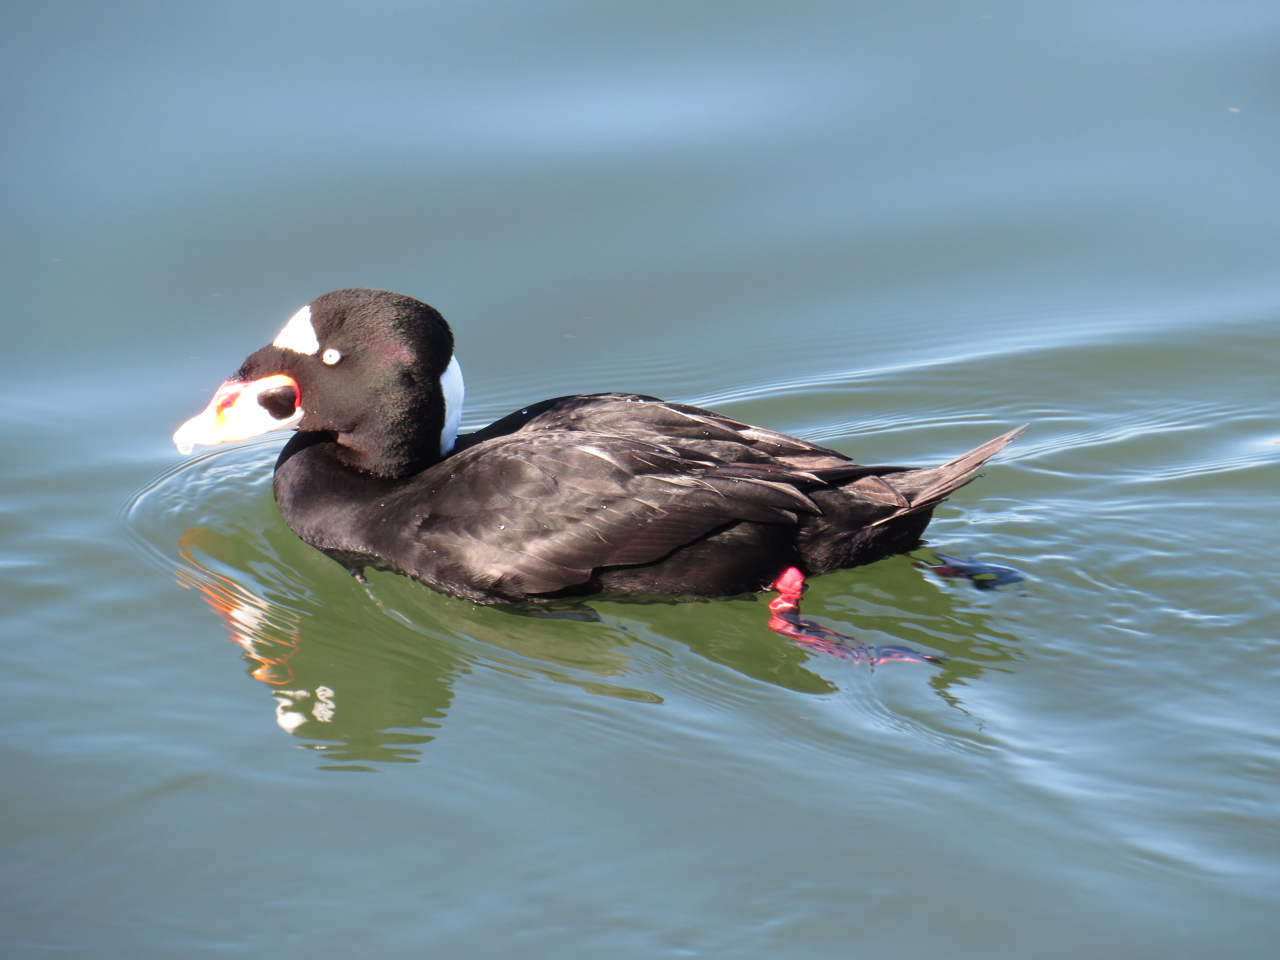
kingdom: Animalia
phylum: Chordata
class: Aves
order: Anseriformes
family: Anatidae
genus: Melanitta
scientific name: Melanitta perspicillata
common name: Surf scoter
